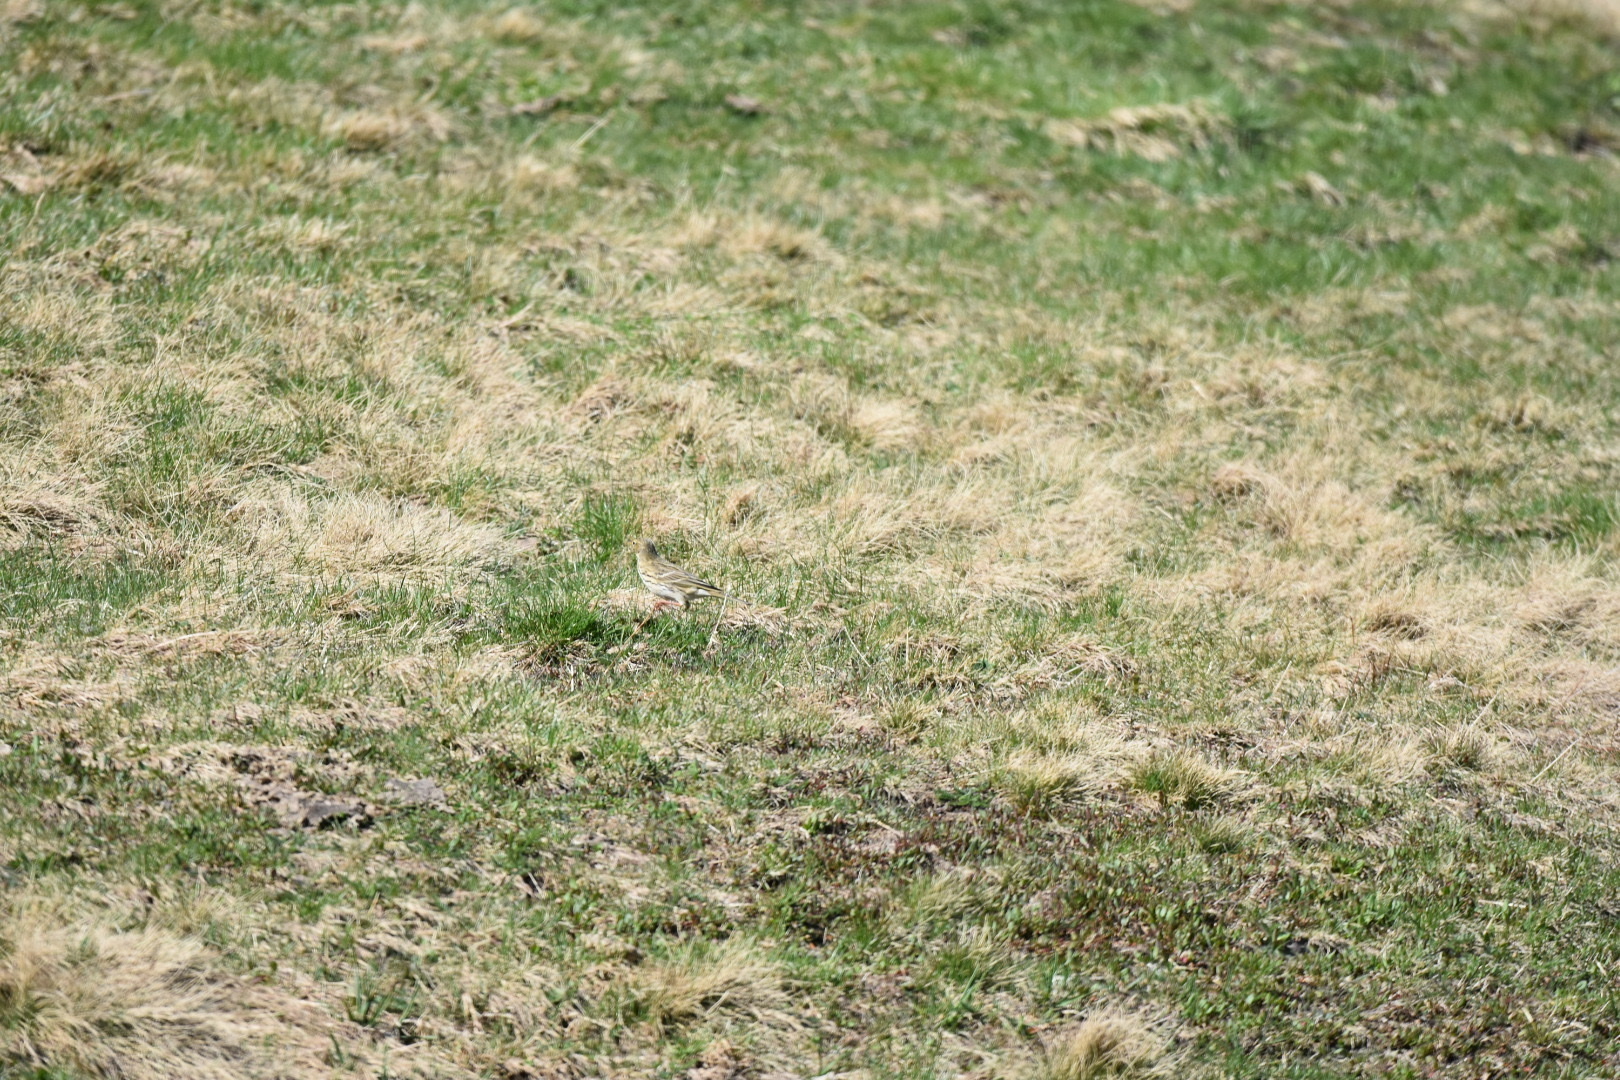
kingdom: Animalia
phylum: Chordata
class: Aves
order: Passeriformes
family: Motacillidae
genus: Anthus
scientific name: Anthus trivialis
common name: Tree pipit
